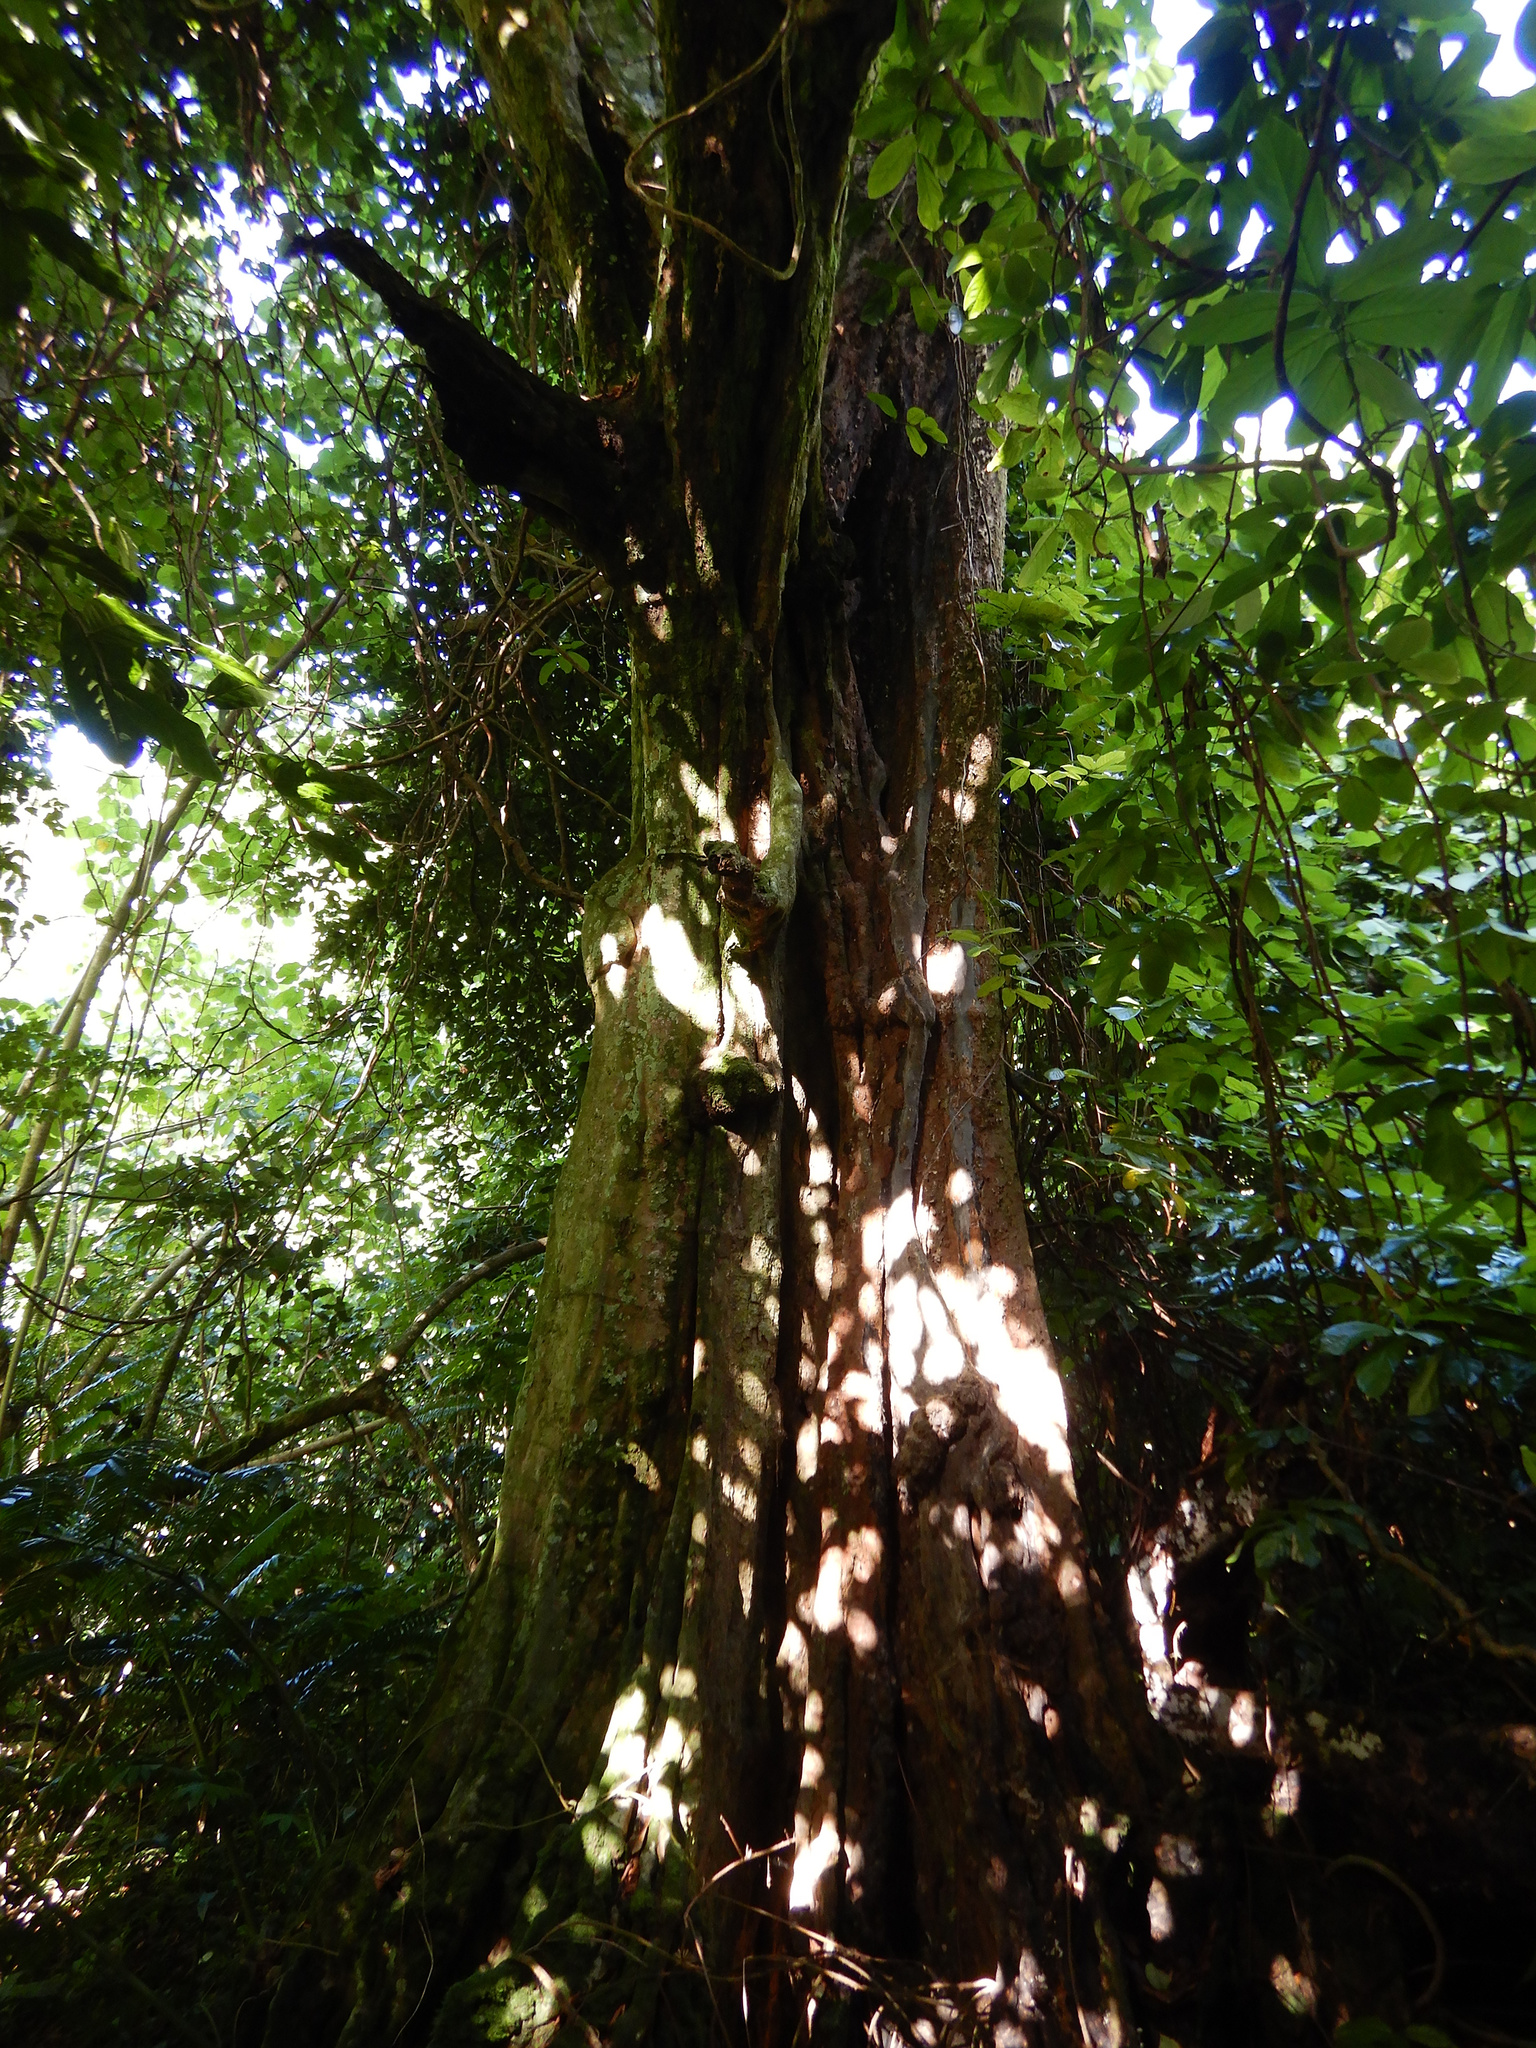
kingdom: Plantae
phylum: Tracheophyta
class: Magnoliopsida
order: Fabales
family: Fabaceae
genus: Inocarpus
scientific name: Inocarpus fagifer
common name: Polynesian chestnut
